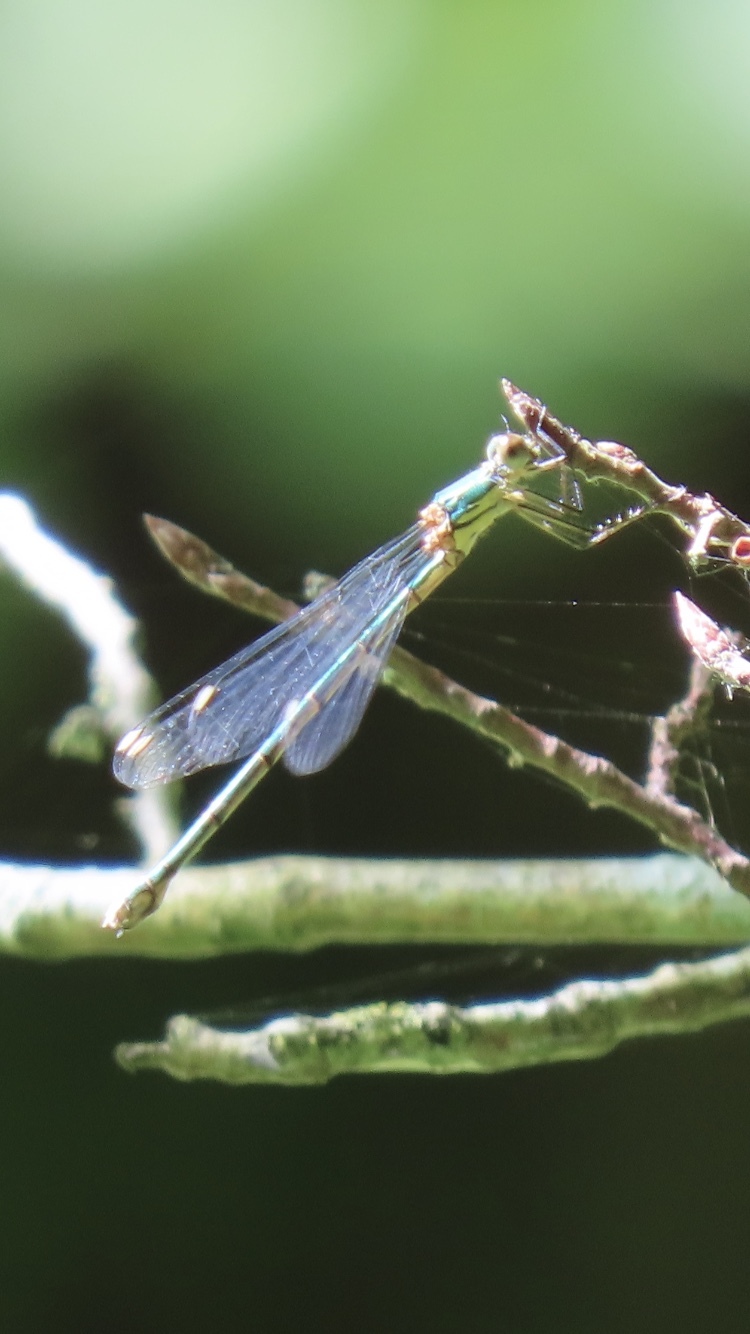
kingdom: Animalia
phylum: Arthropoda
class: Insecta
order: Odonata
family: Lestidae
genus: Chalcolestes
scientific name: Chalcolestes viridis
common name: Green emerald damselfly
